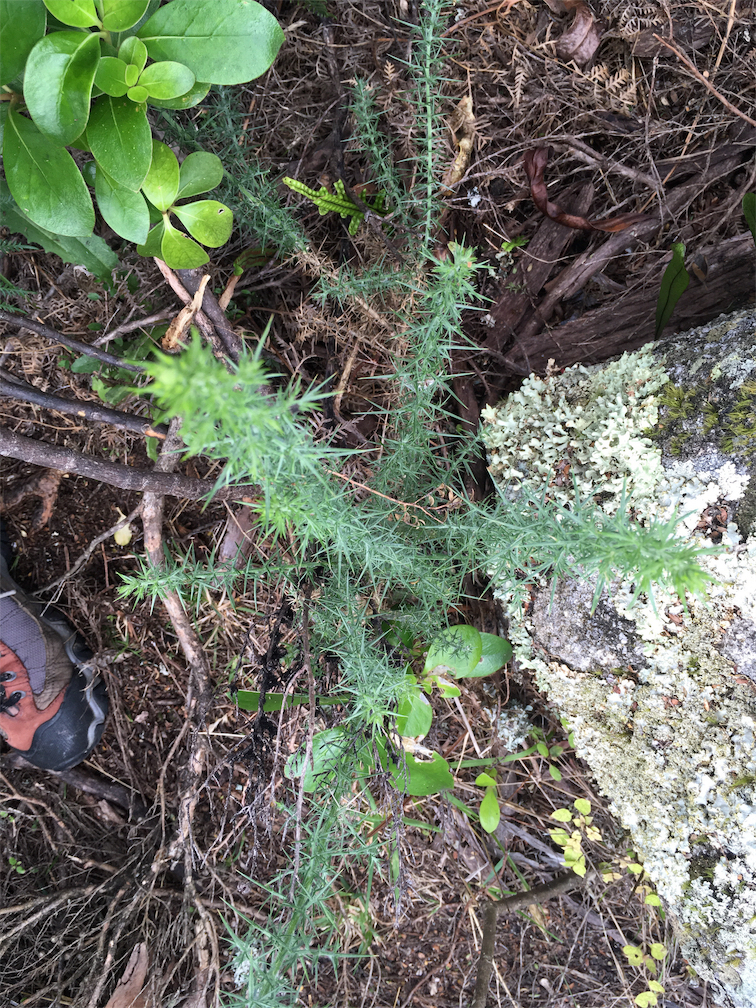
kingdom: Plantae
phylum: Tracheophyta
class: Magnoliopsida
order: Fabales
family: Fabaceae
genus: Ulex
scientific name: Ulex europaeus
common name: Common gorse
